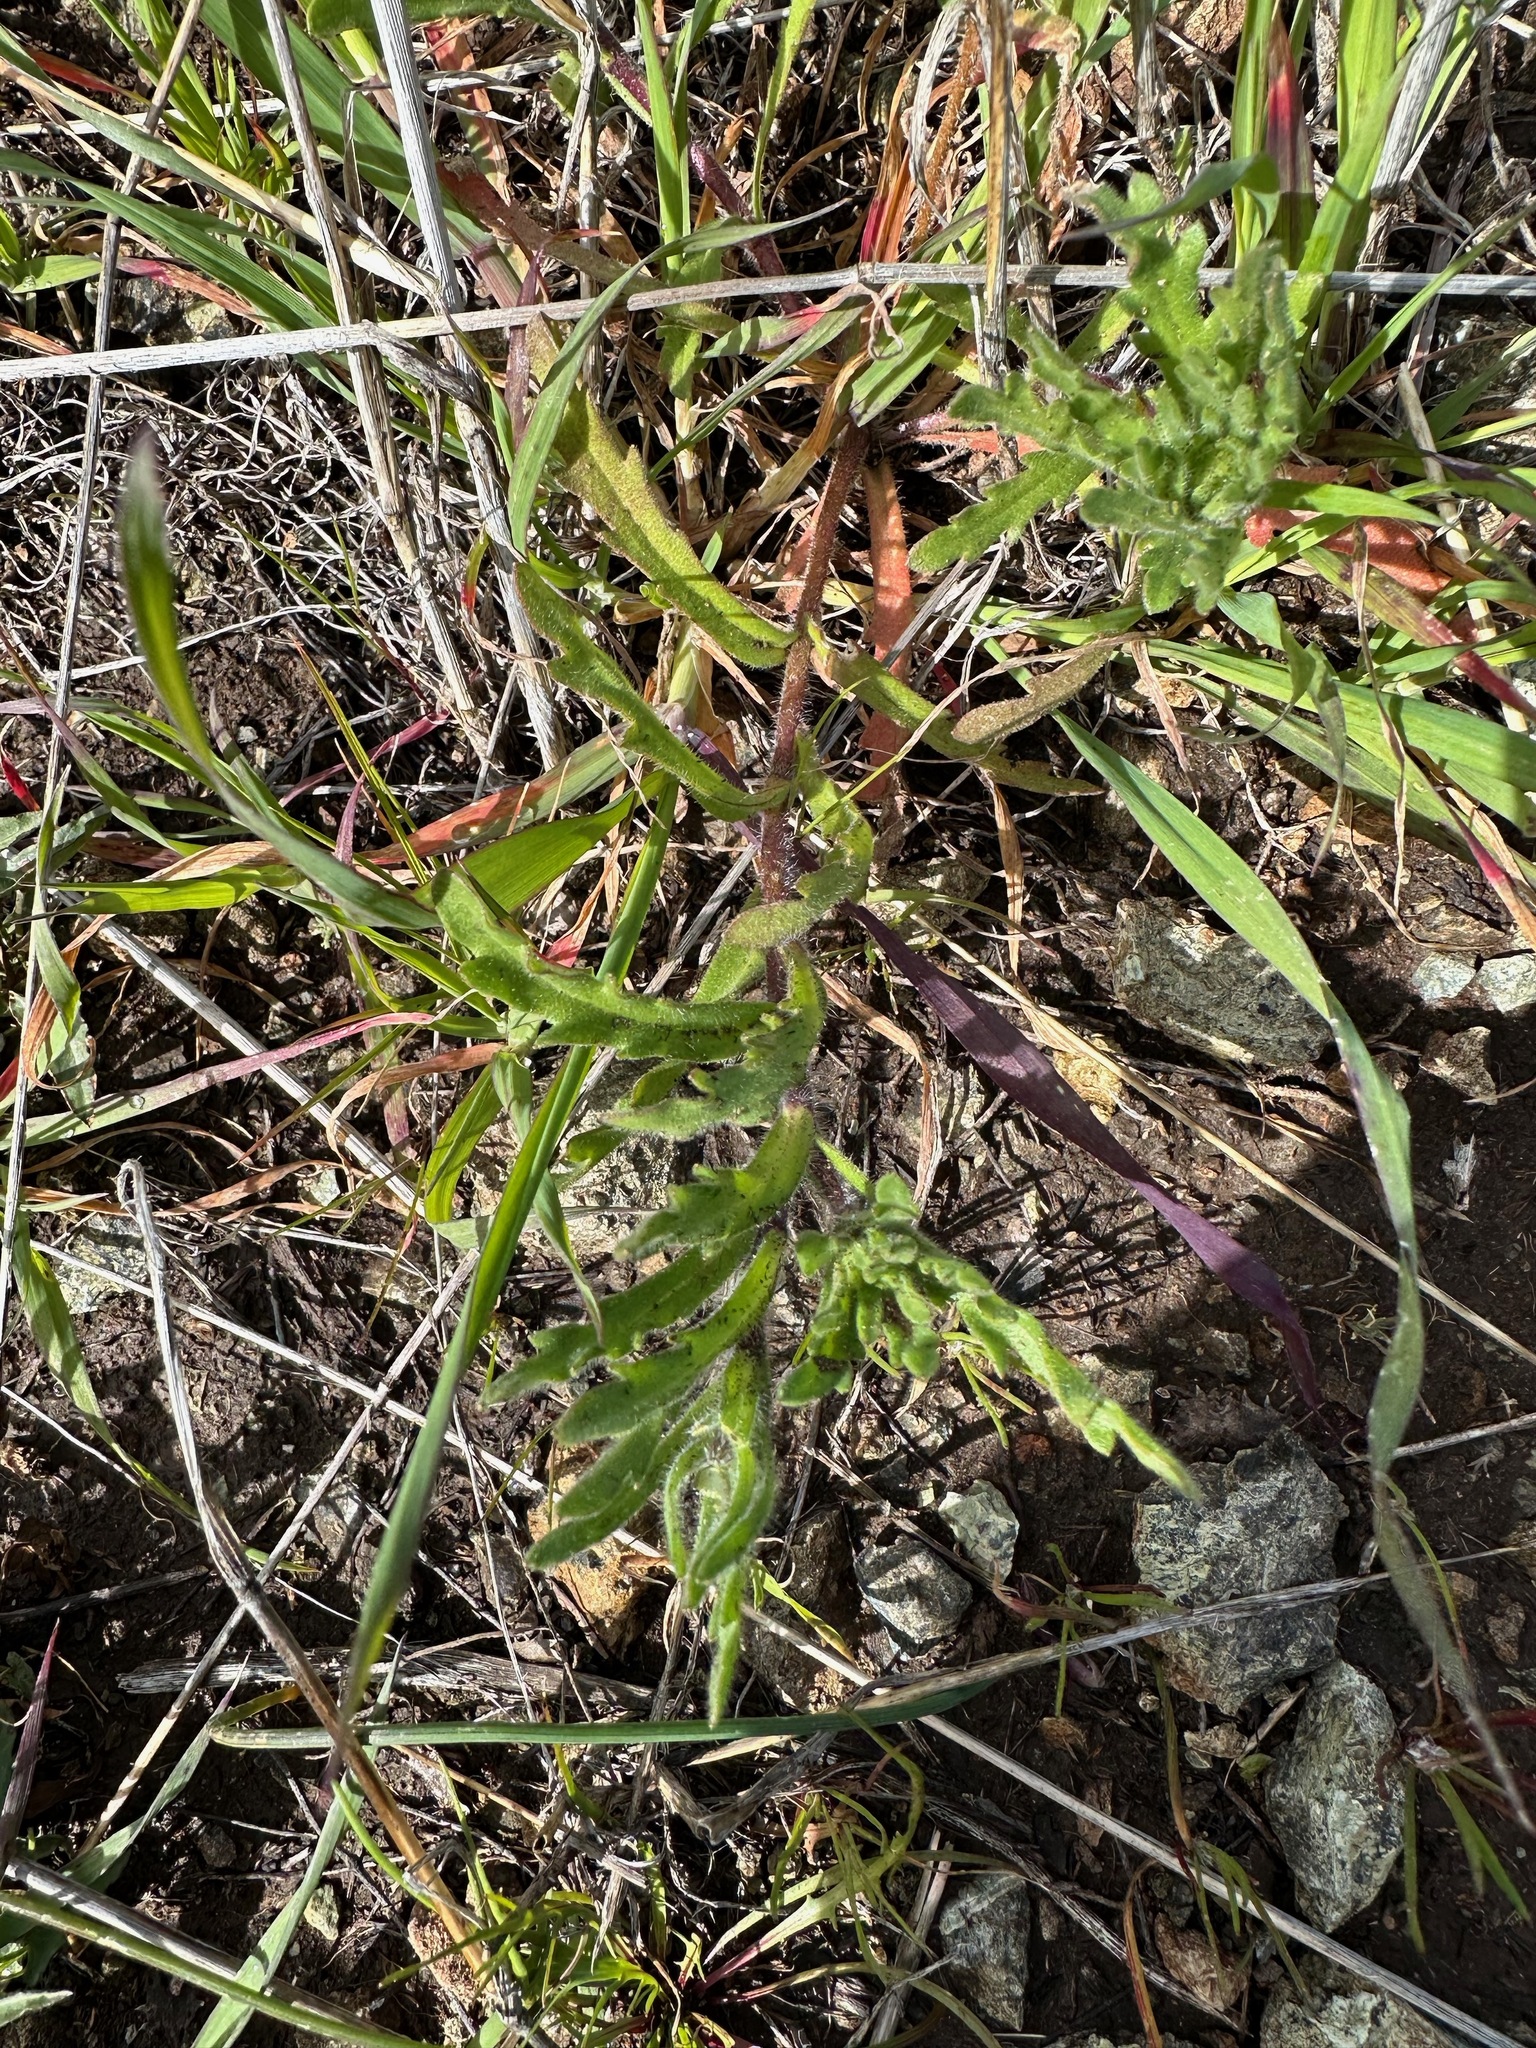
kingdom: Plantae
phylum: Tracheophyta
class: Magnoliopsida
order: Asterales
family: Asteraceae
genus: Layia
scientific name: Layia platyglossa
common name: Tidy-tips
